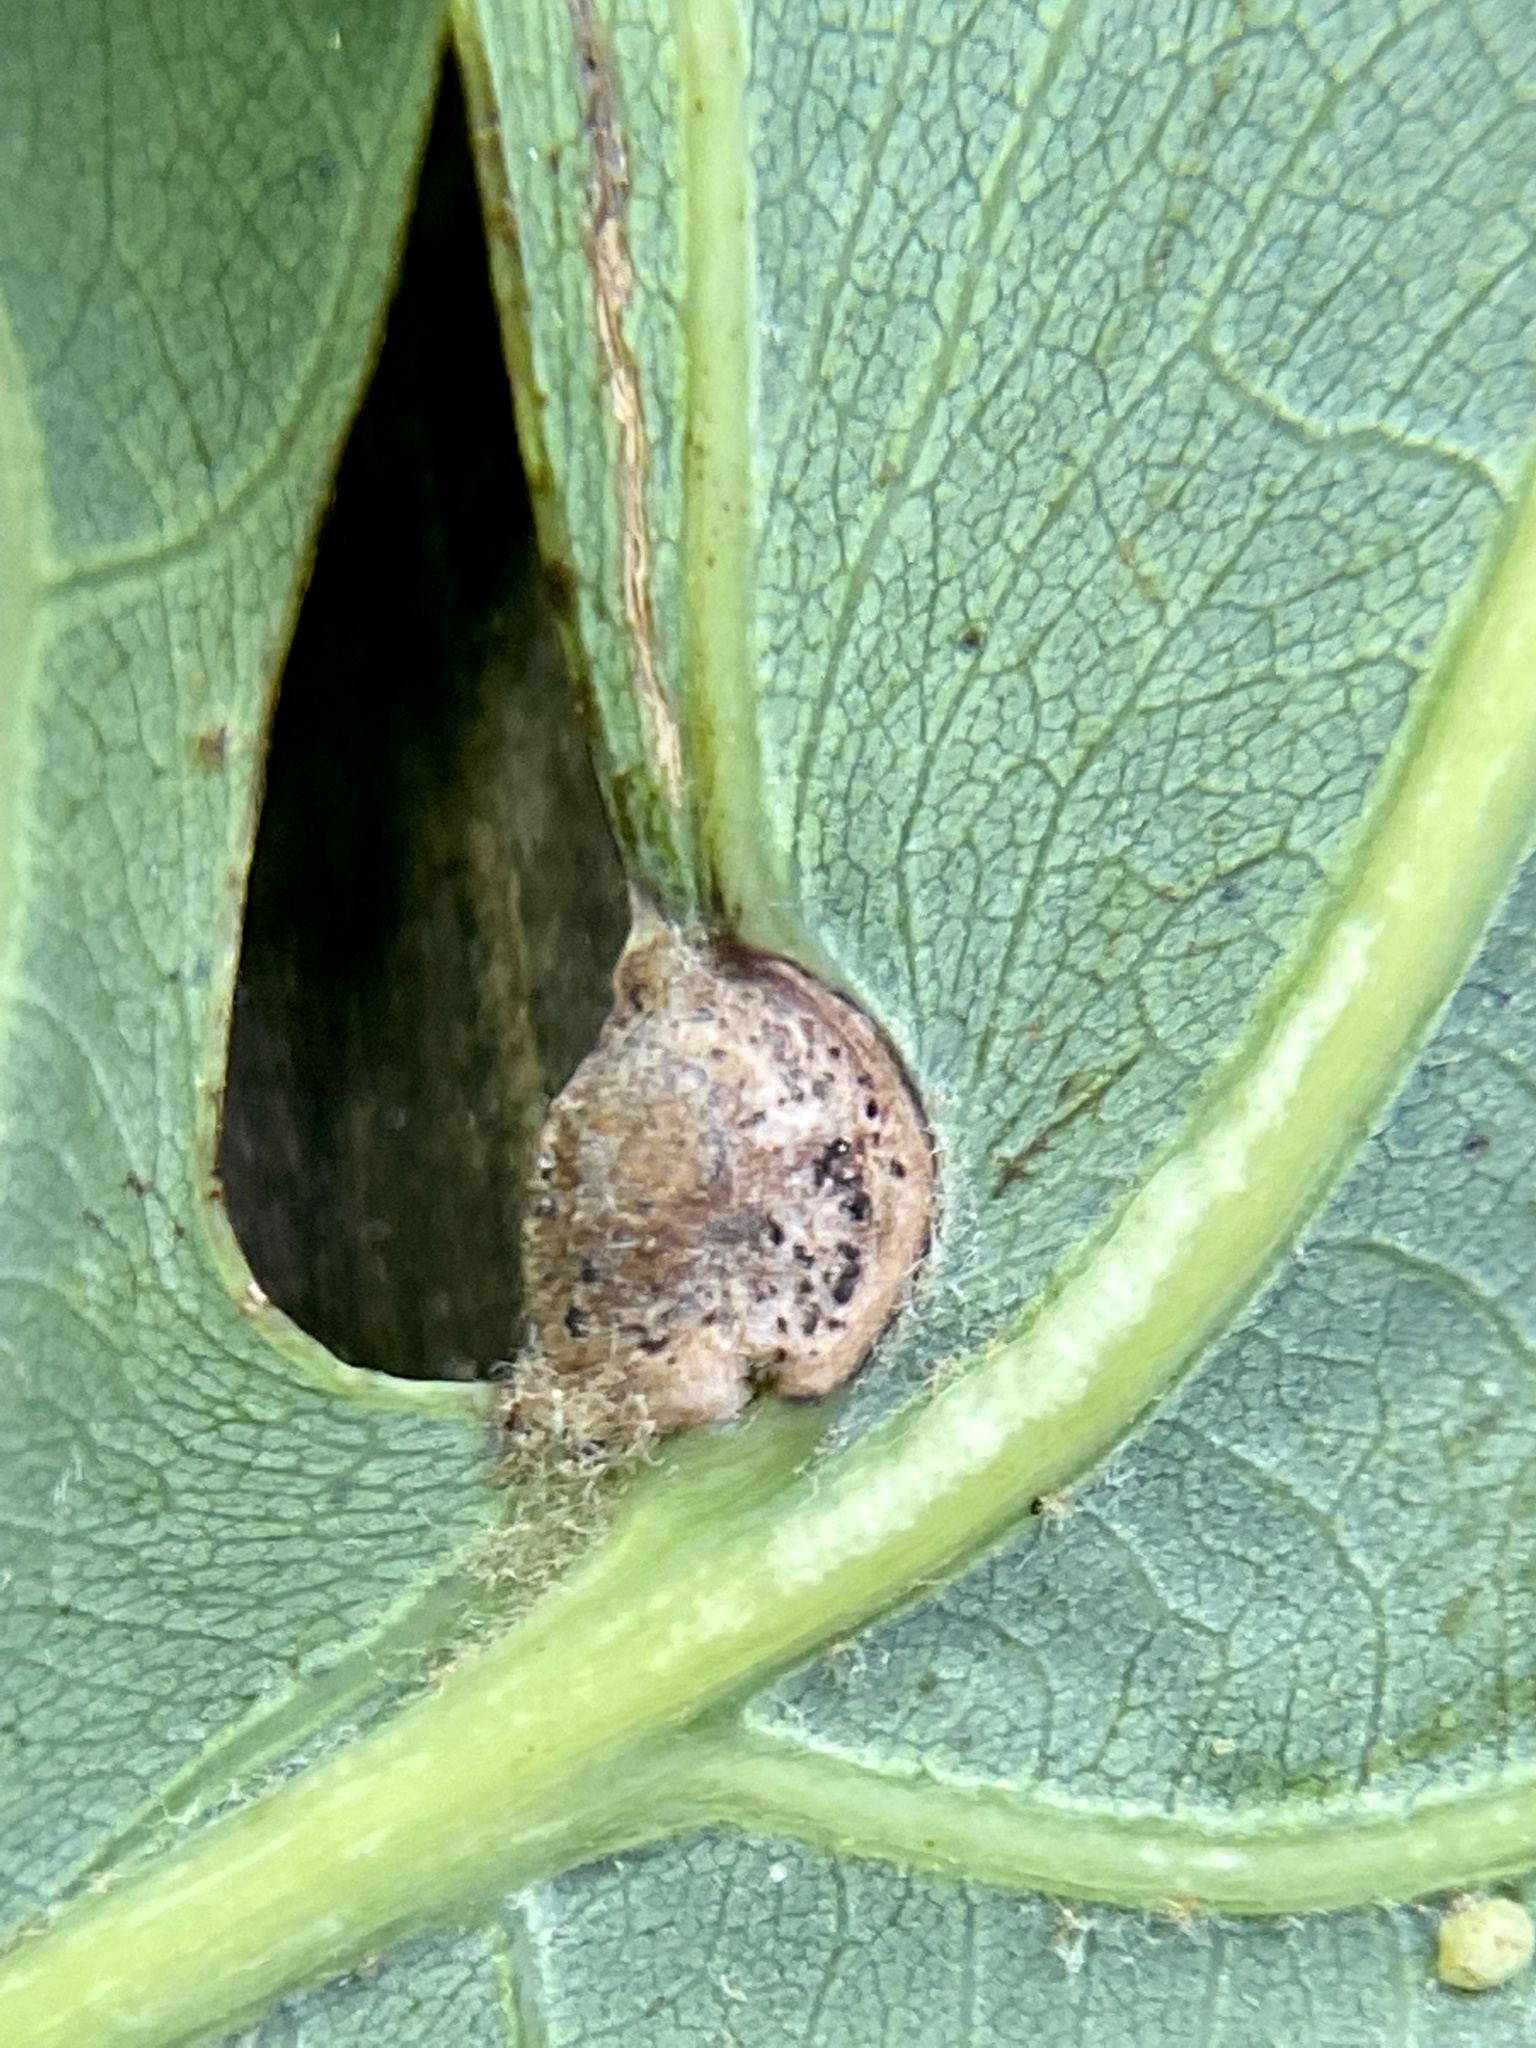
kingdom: Animalia
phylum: Arthropoda
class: Insecta
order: Hymenoptera
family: Cynipidae
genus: Andricus
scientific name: Andricus
